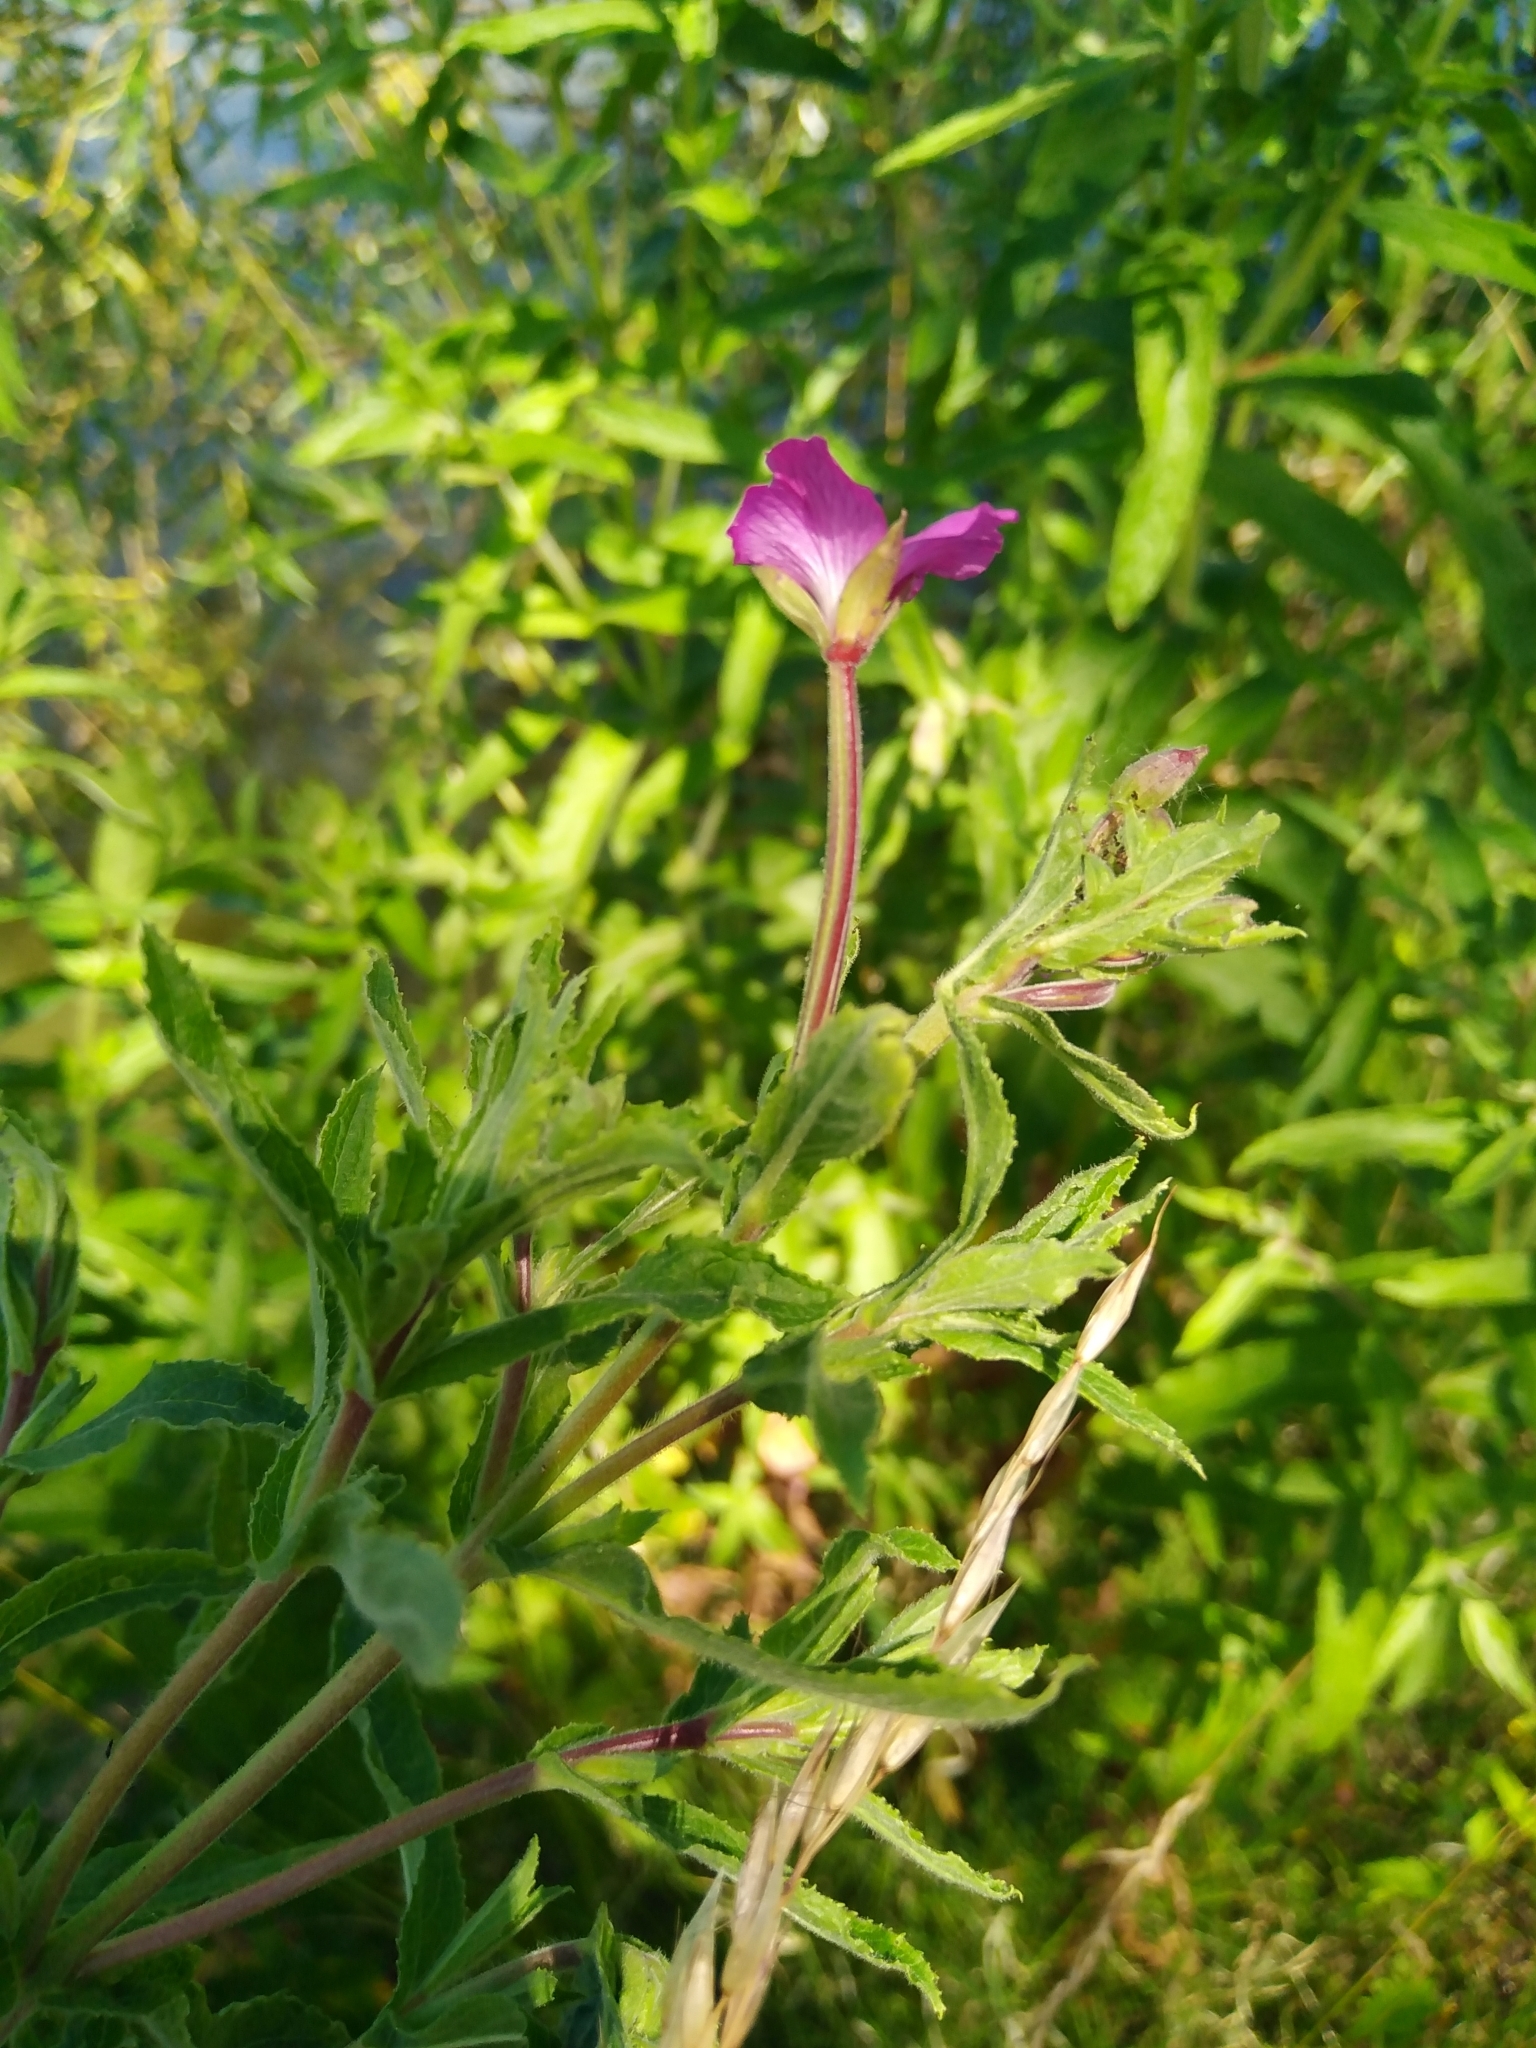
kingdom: Plantae
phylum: Tracheophyta
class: Magnoliopsida
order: Myrtales
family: Onagraceae
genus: Epilobium
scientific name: Epilobium hirsutum
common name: Great willowherb
